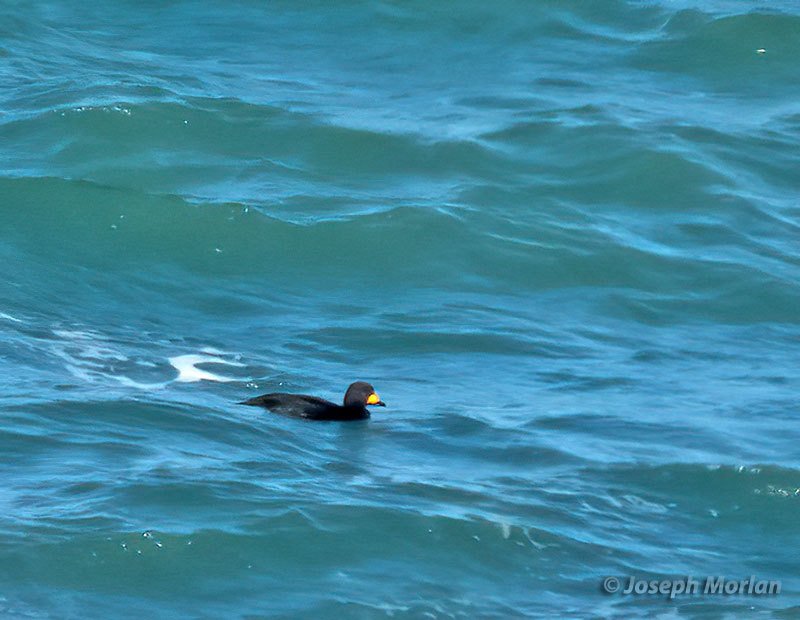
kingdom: Animalia
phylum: Chordata
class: Aves
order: Anseriformes
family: Anatidae
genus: Melanitta
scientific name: Melanitta americana
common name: Black scoter
